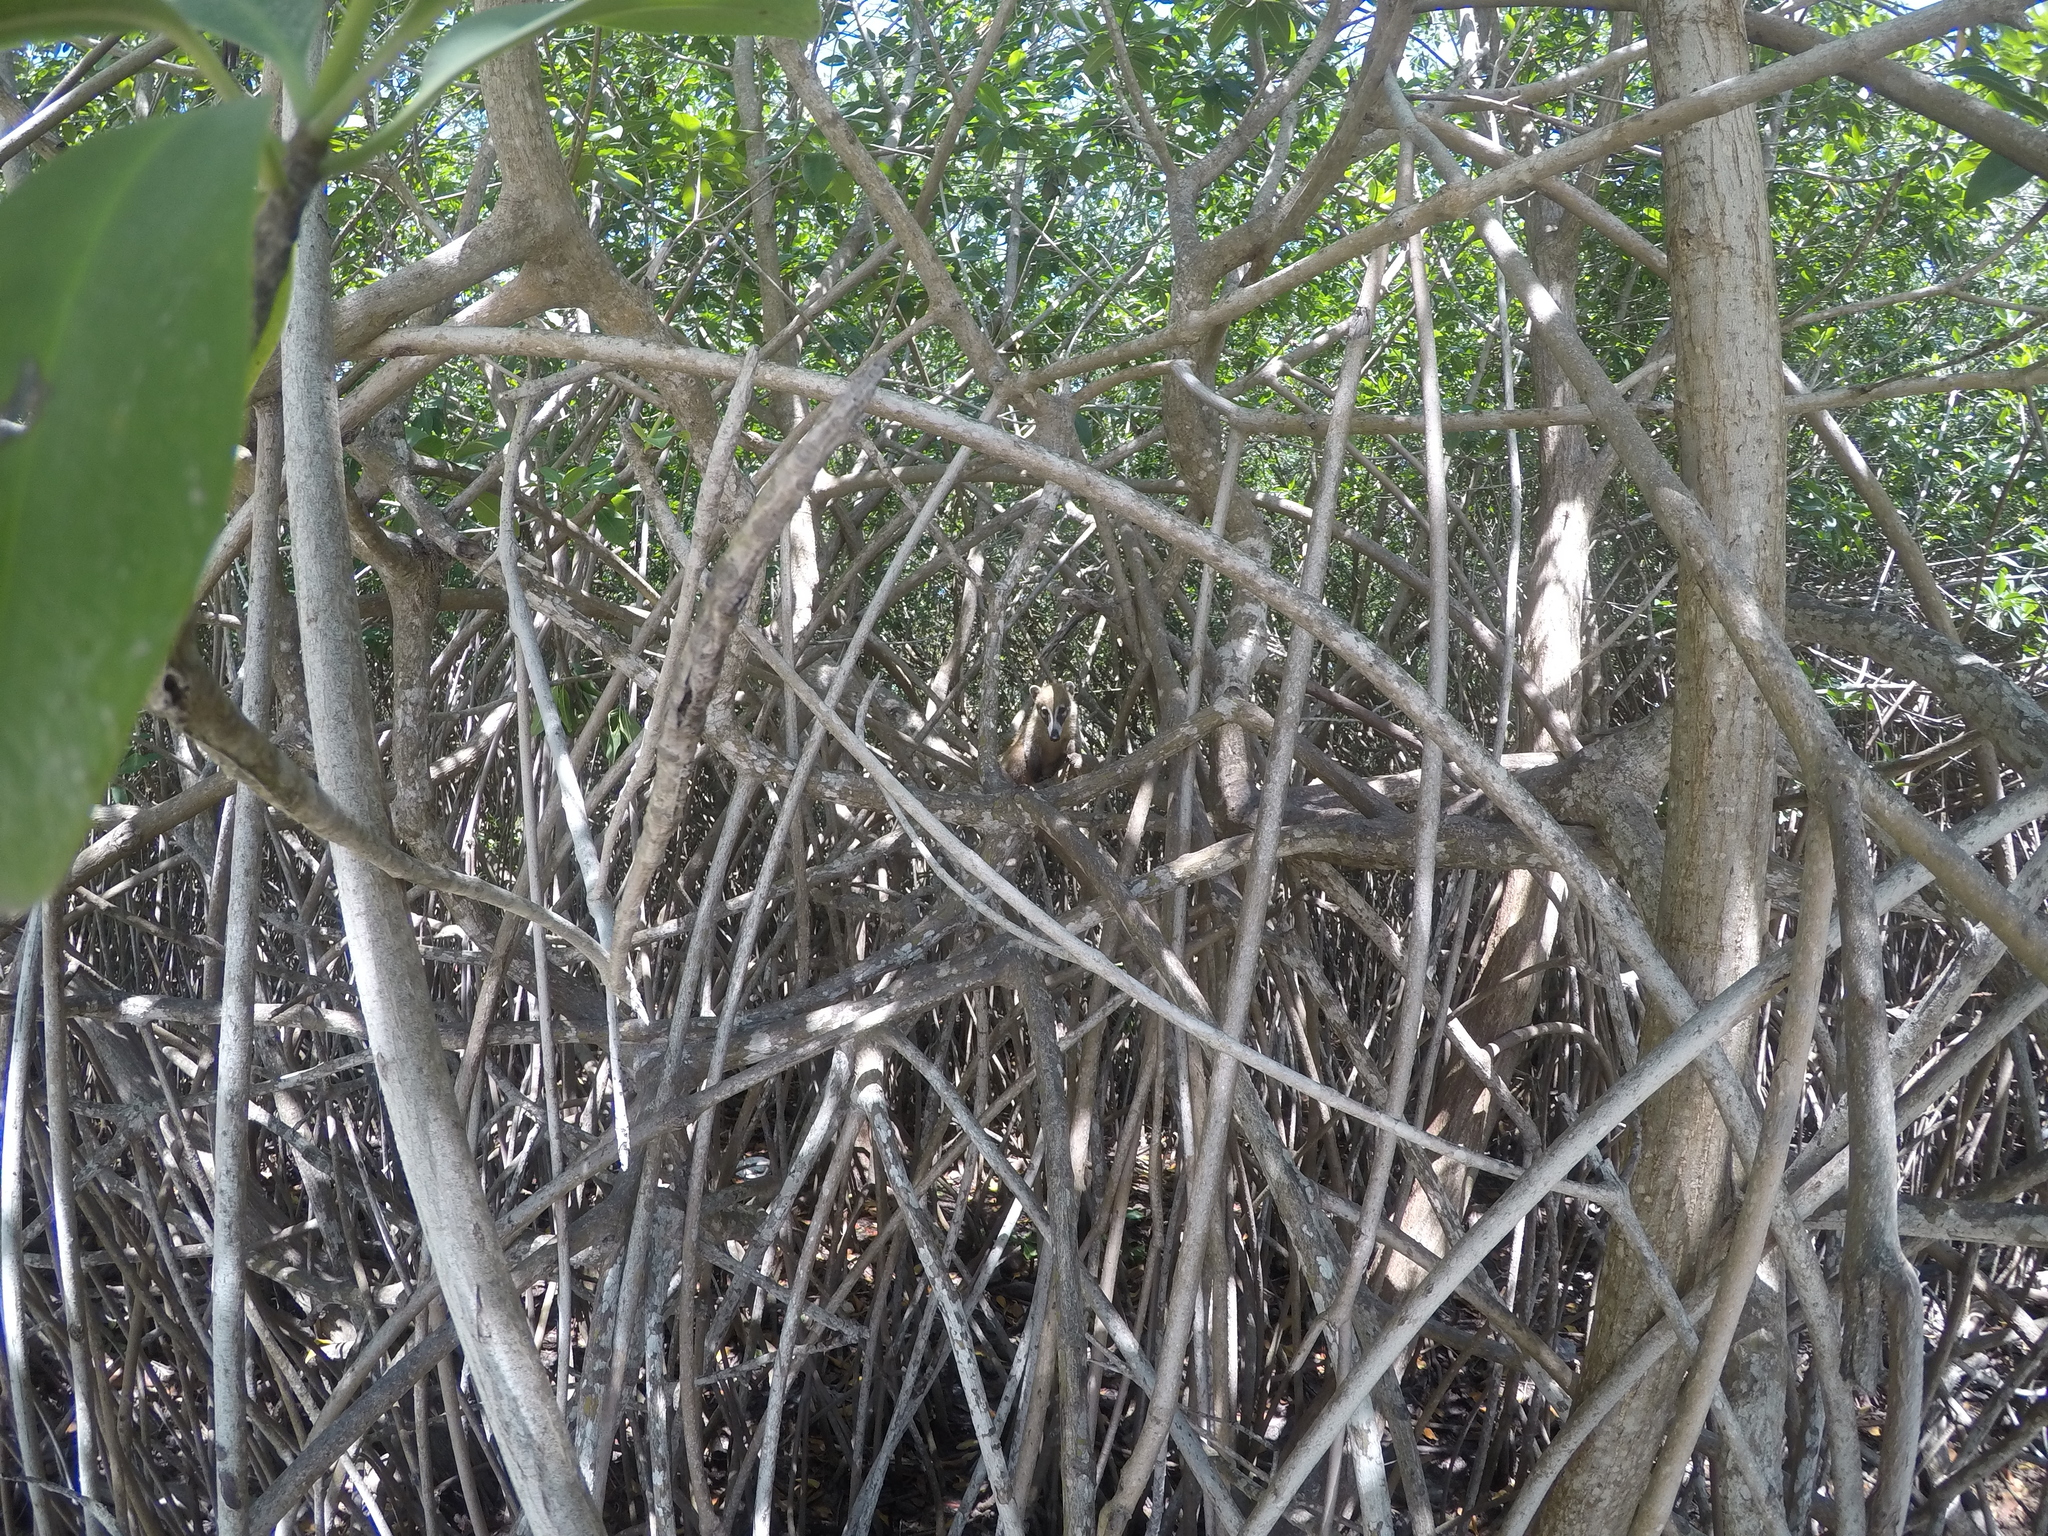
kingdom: Animalia
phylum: Chordata
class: Mammalia
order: Carnivora
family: Procyonidae
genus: Nasua
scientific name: Nasua narica
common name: White-nosed coati
